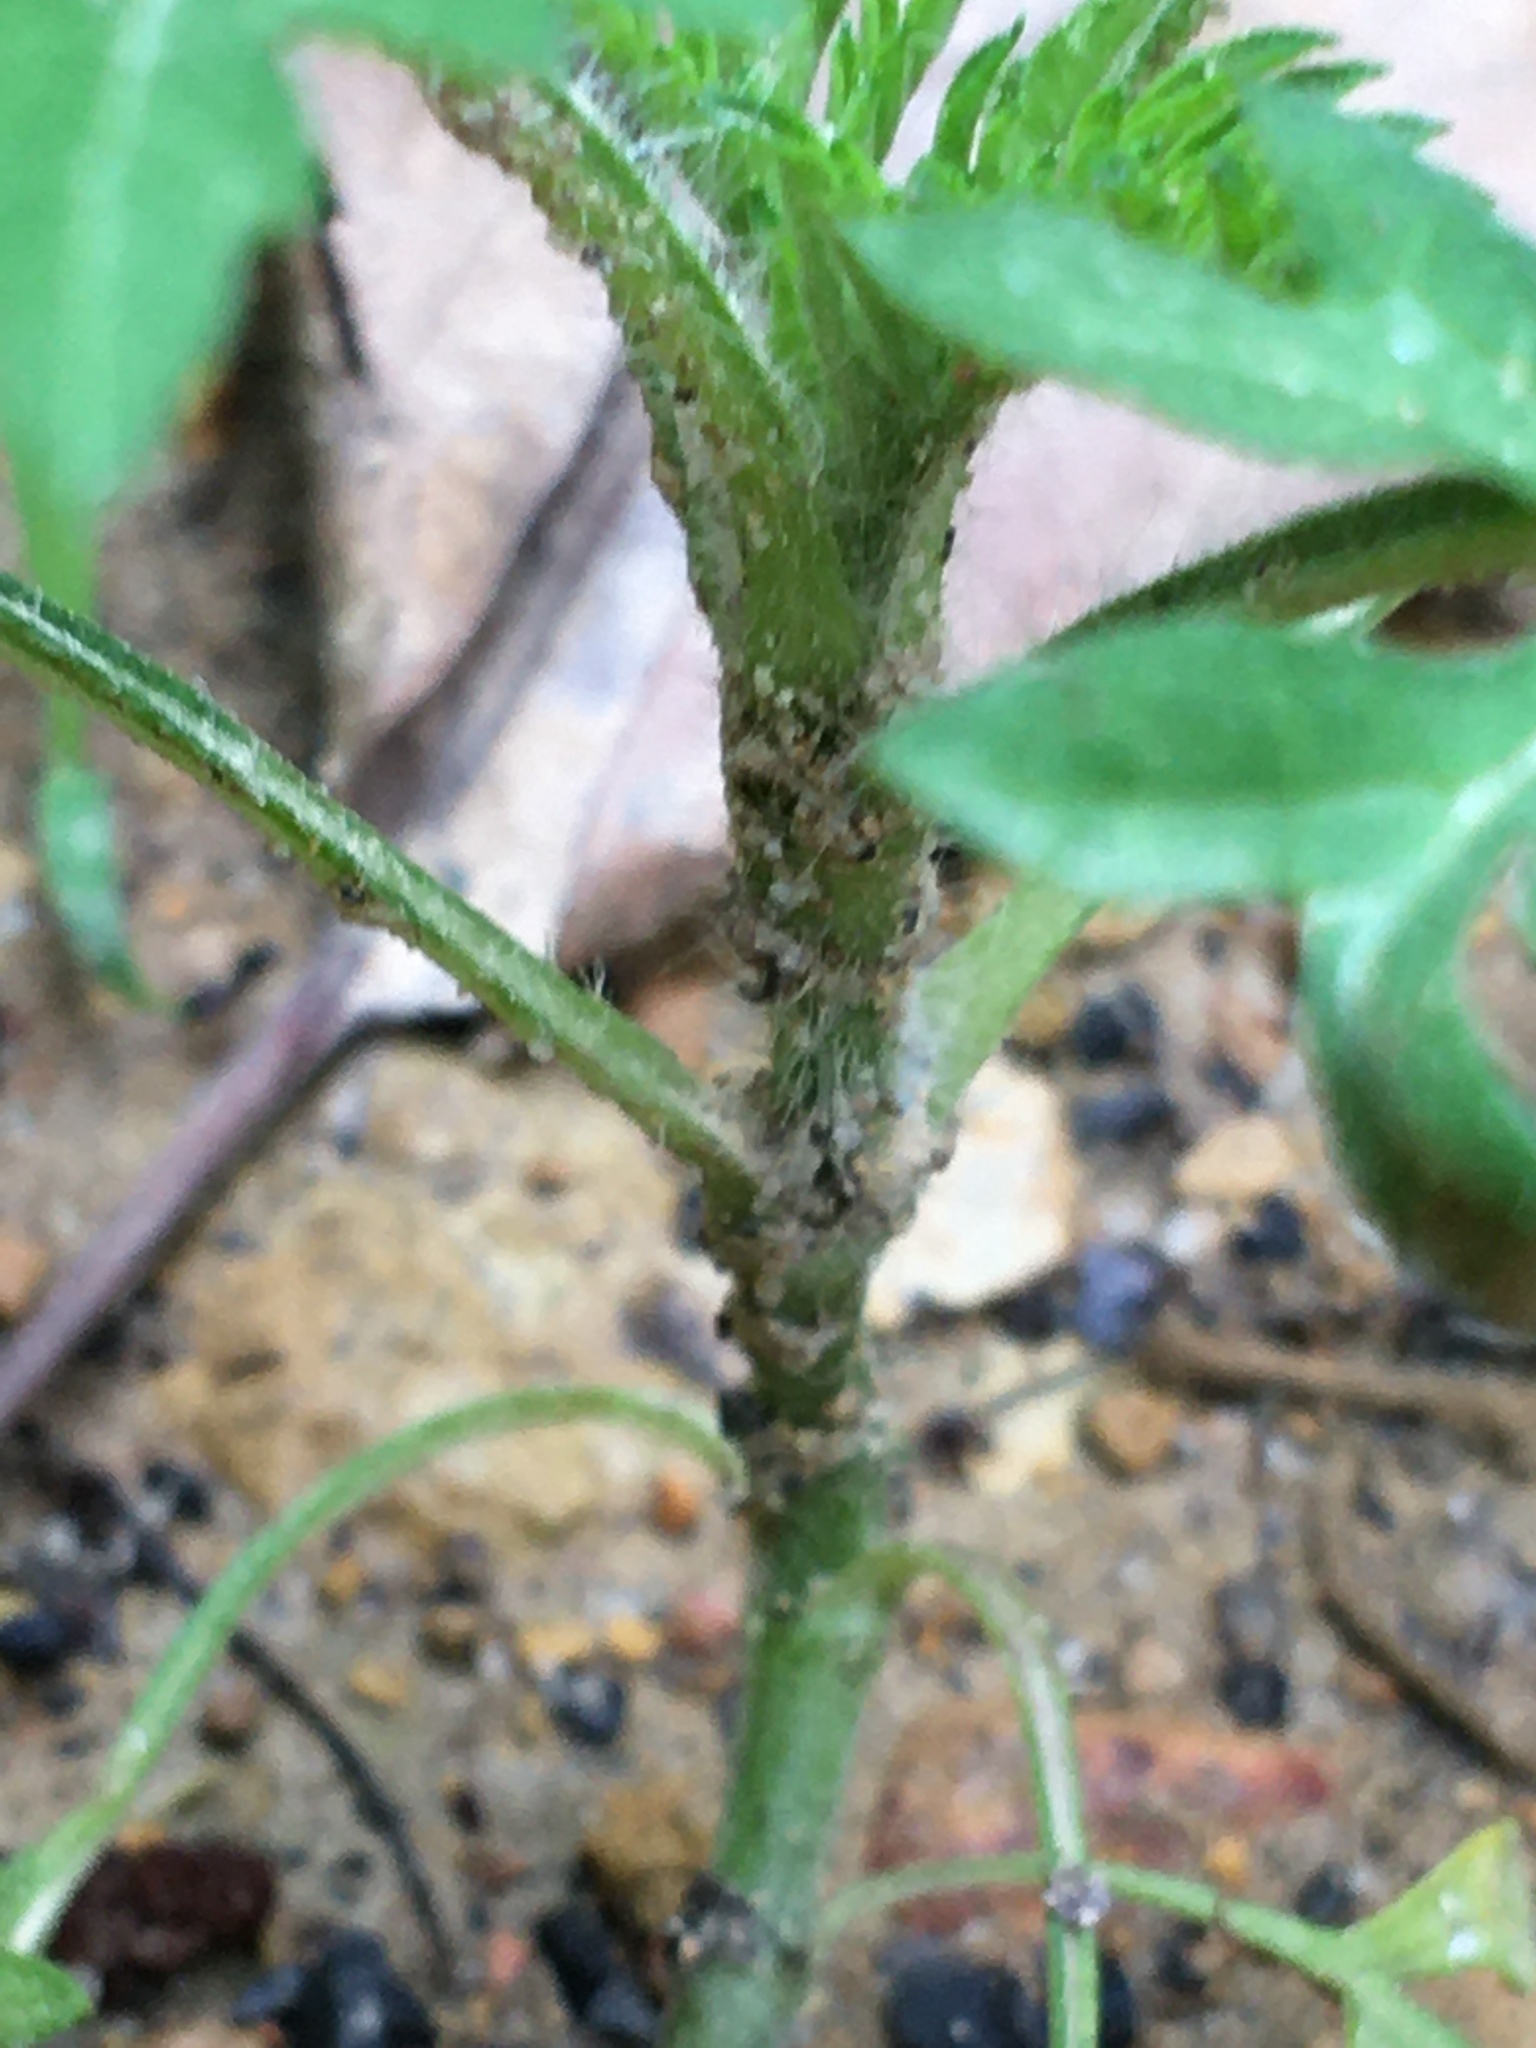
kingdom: Plantae
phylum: Tracheophyta
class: Magnoliopsida
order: Asterales
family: Asteraceae
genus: Ambrosia
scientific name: Ambrosia artemisiifolia
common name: Annual ragweed
